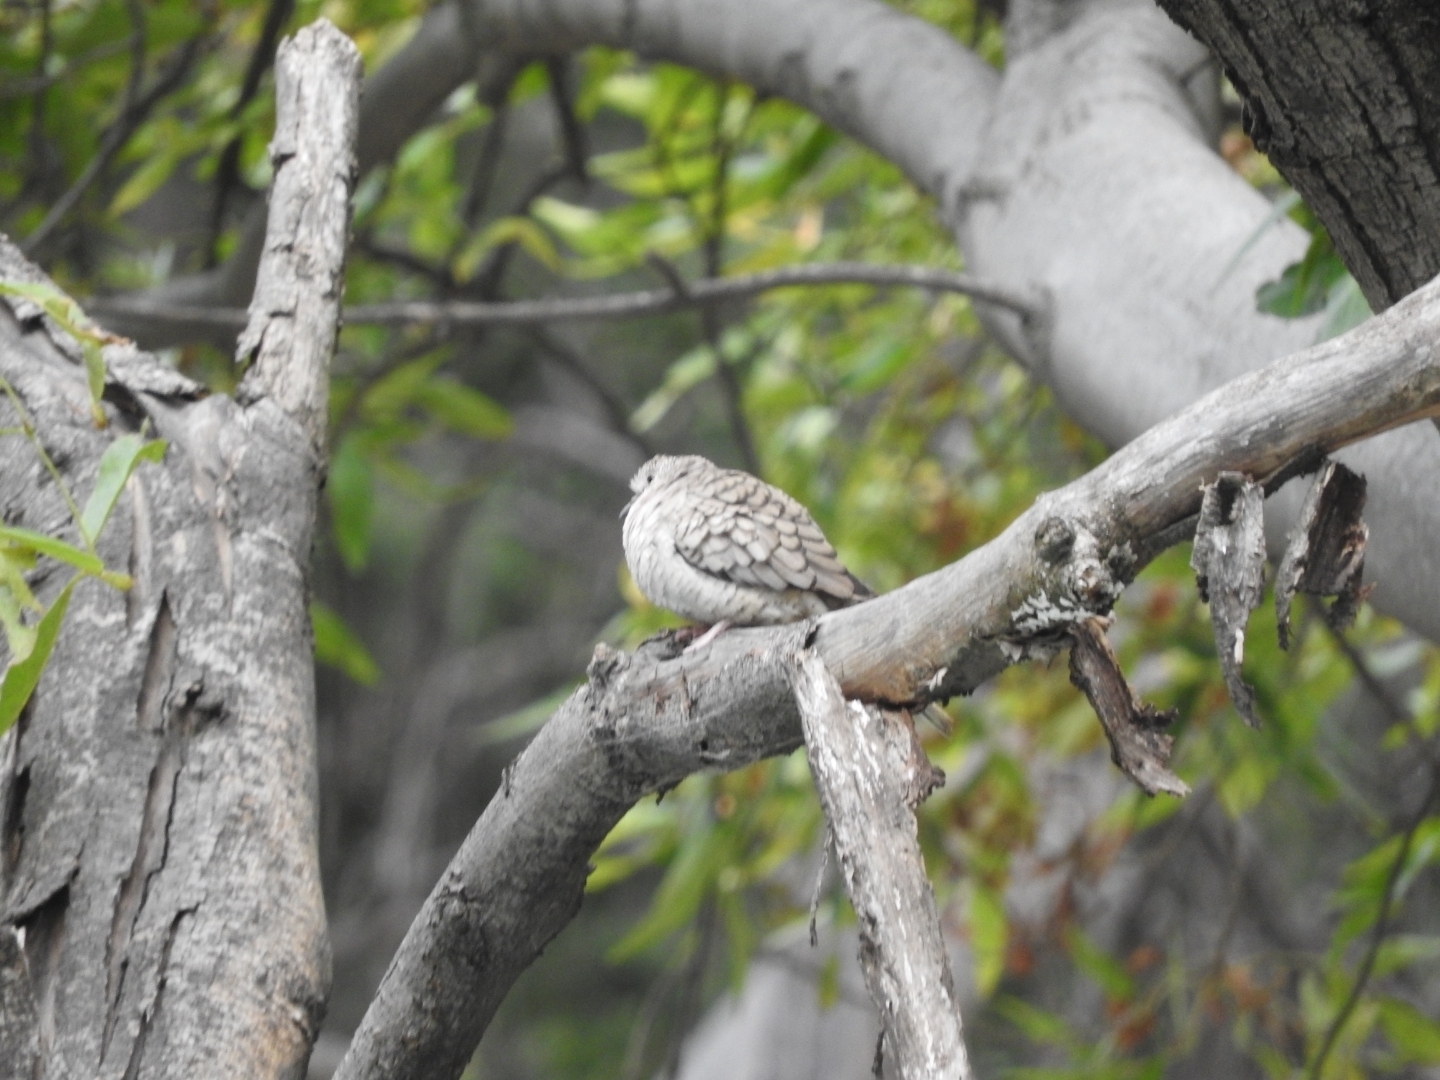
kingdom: Animalia
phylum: Chordata
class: Aves
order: Columbiformes
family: Columbidae
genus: Columbina
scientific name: Columbina inca
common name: Inca dove
